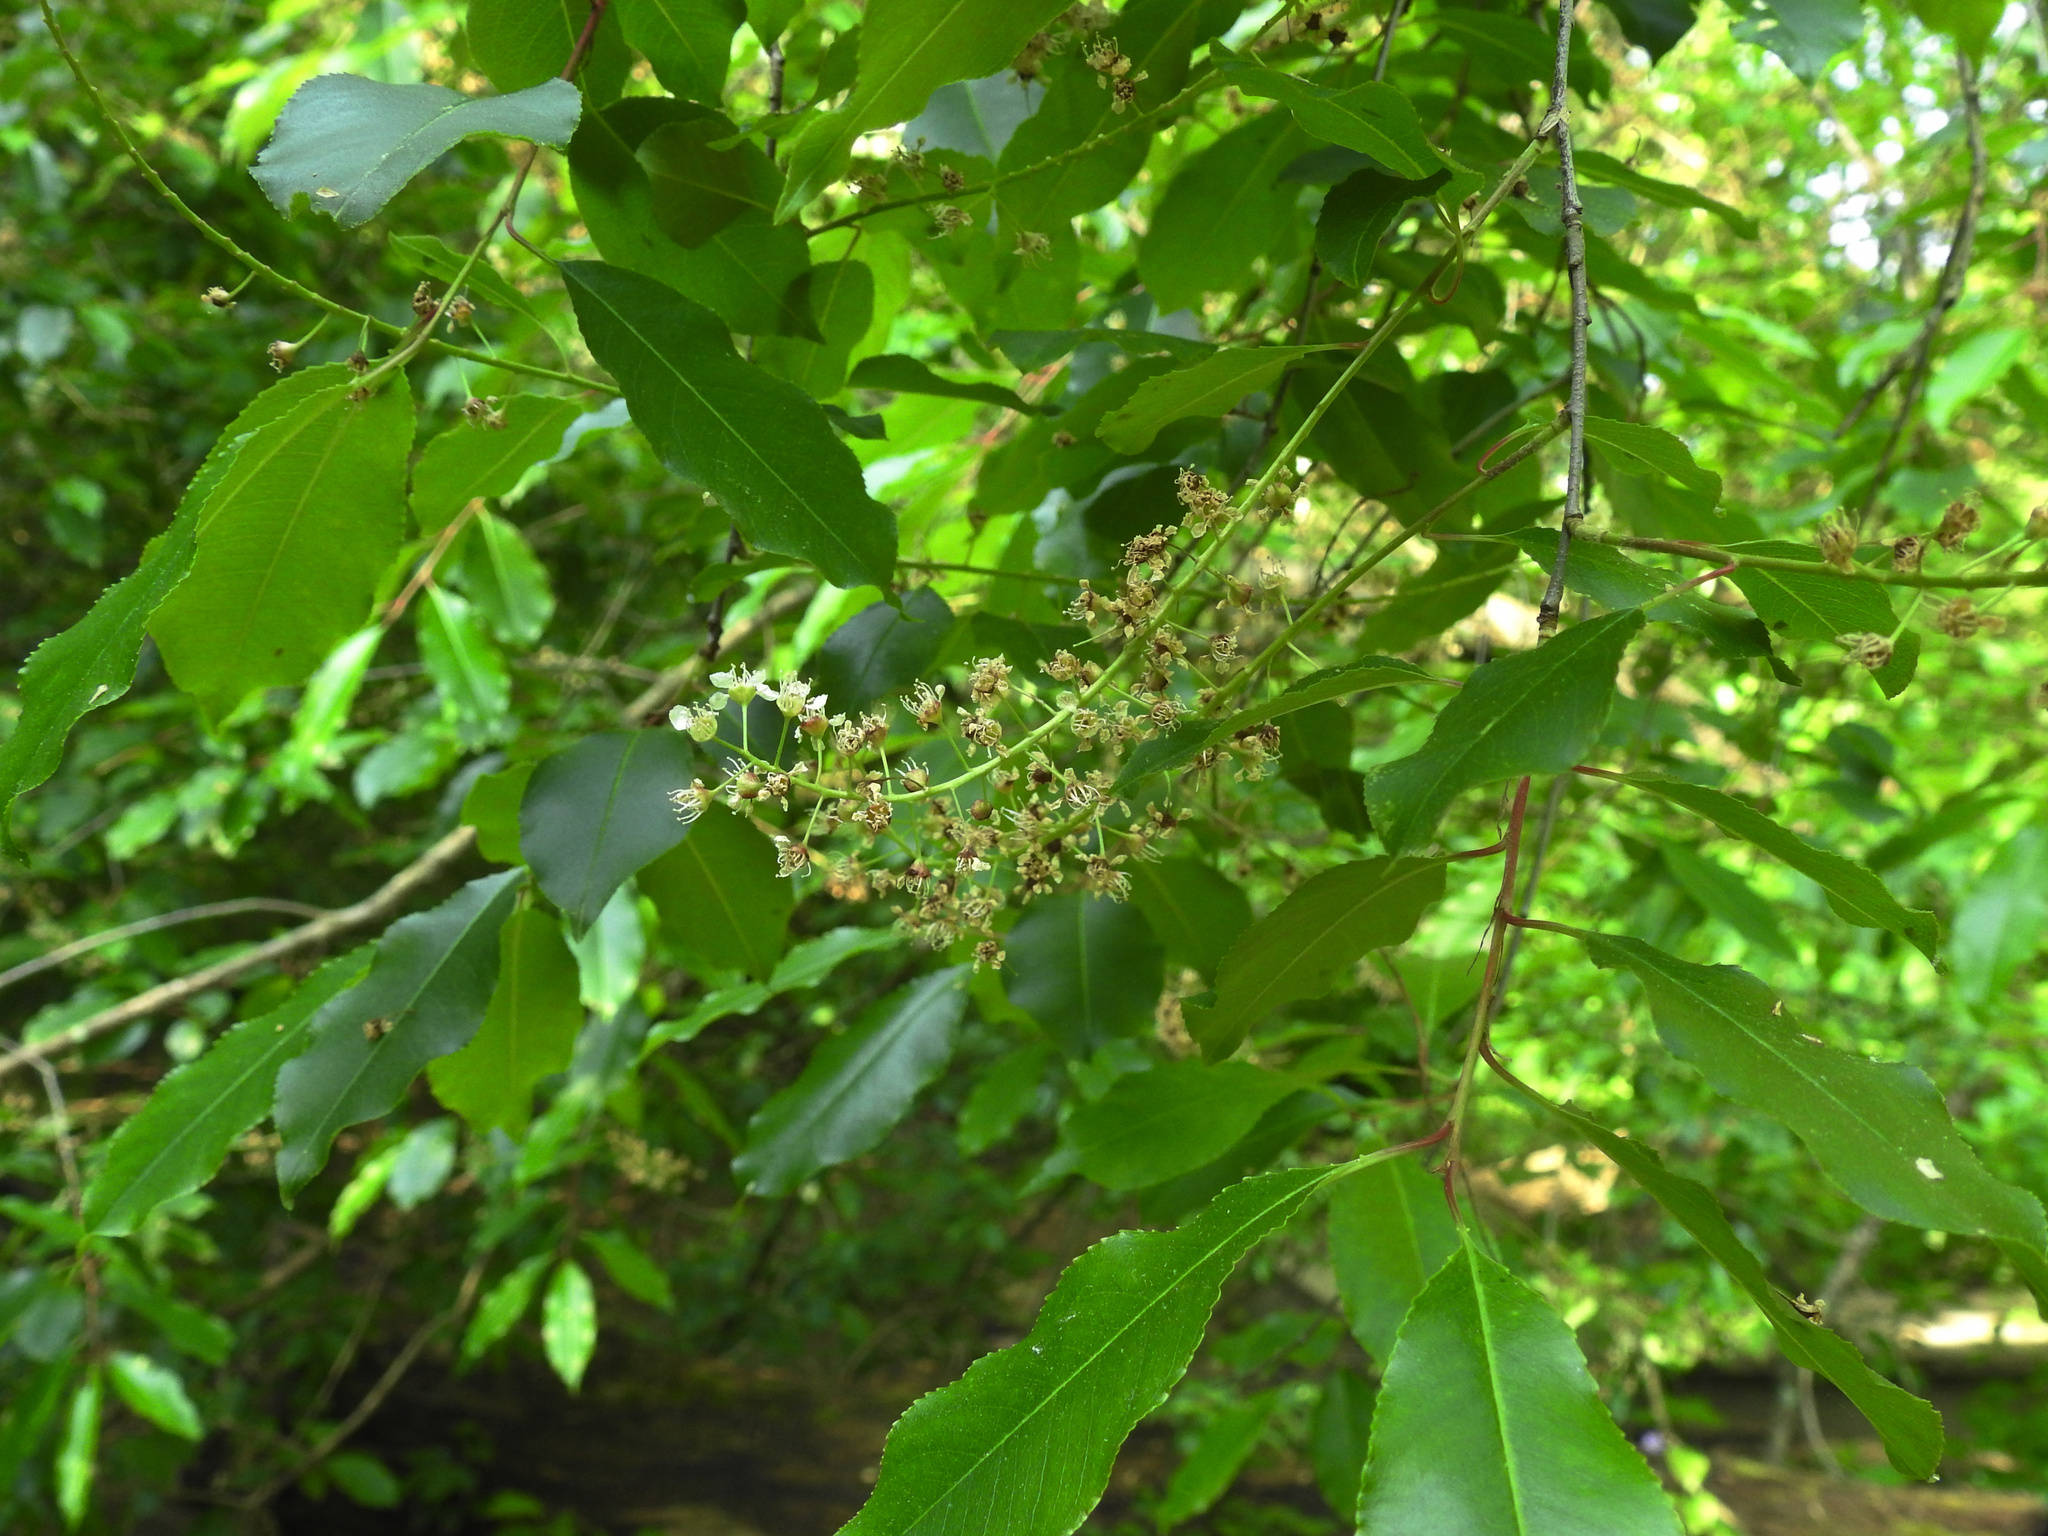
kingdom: Plantae
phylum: Tracheophyta
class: Magnoliopsida
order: Rosales
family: Rosaceae
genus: Prunus
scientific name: Prunus serotina
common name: Black cherry
